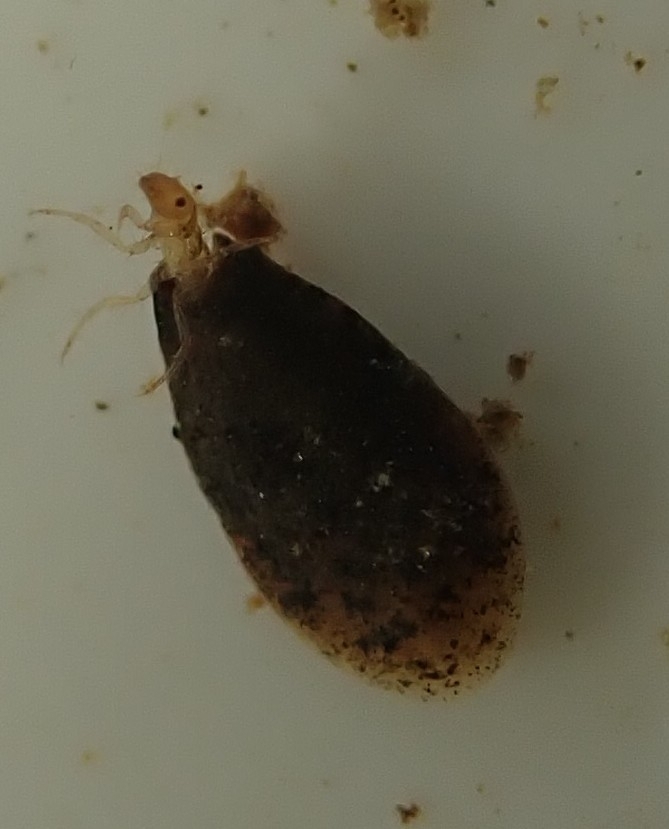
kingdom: Animalia
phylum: Arthropoda
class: Insecta
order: Trichoptera
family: Hydroptilidae
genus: Ithytrichia
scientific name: Ithytrichia lamellaris
